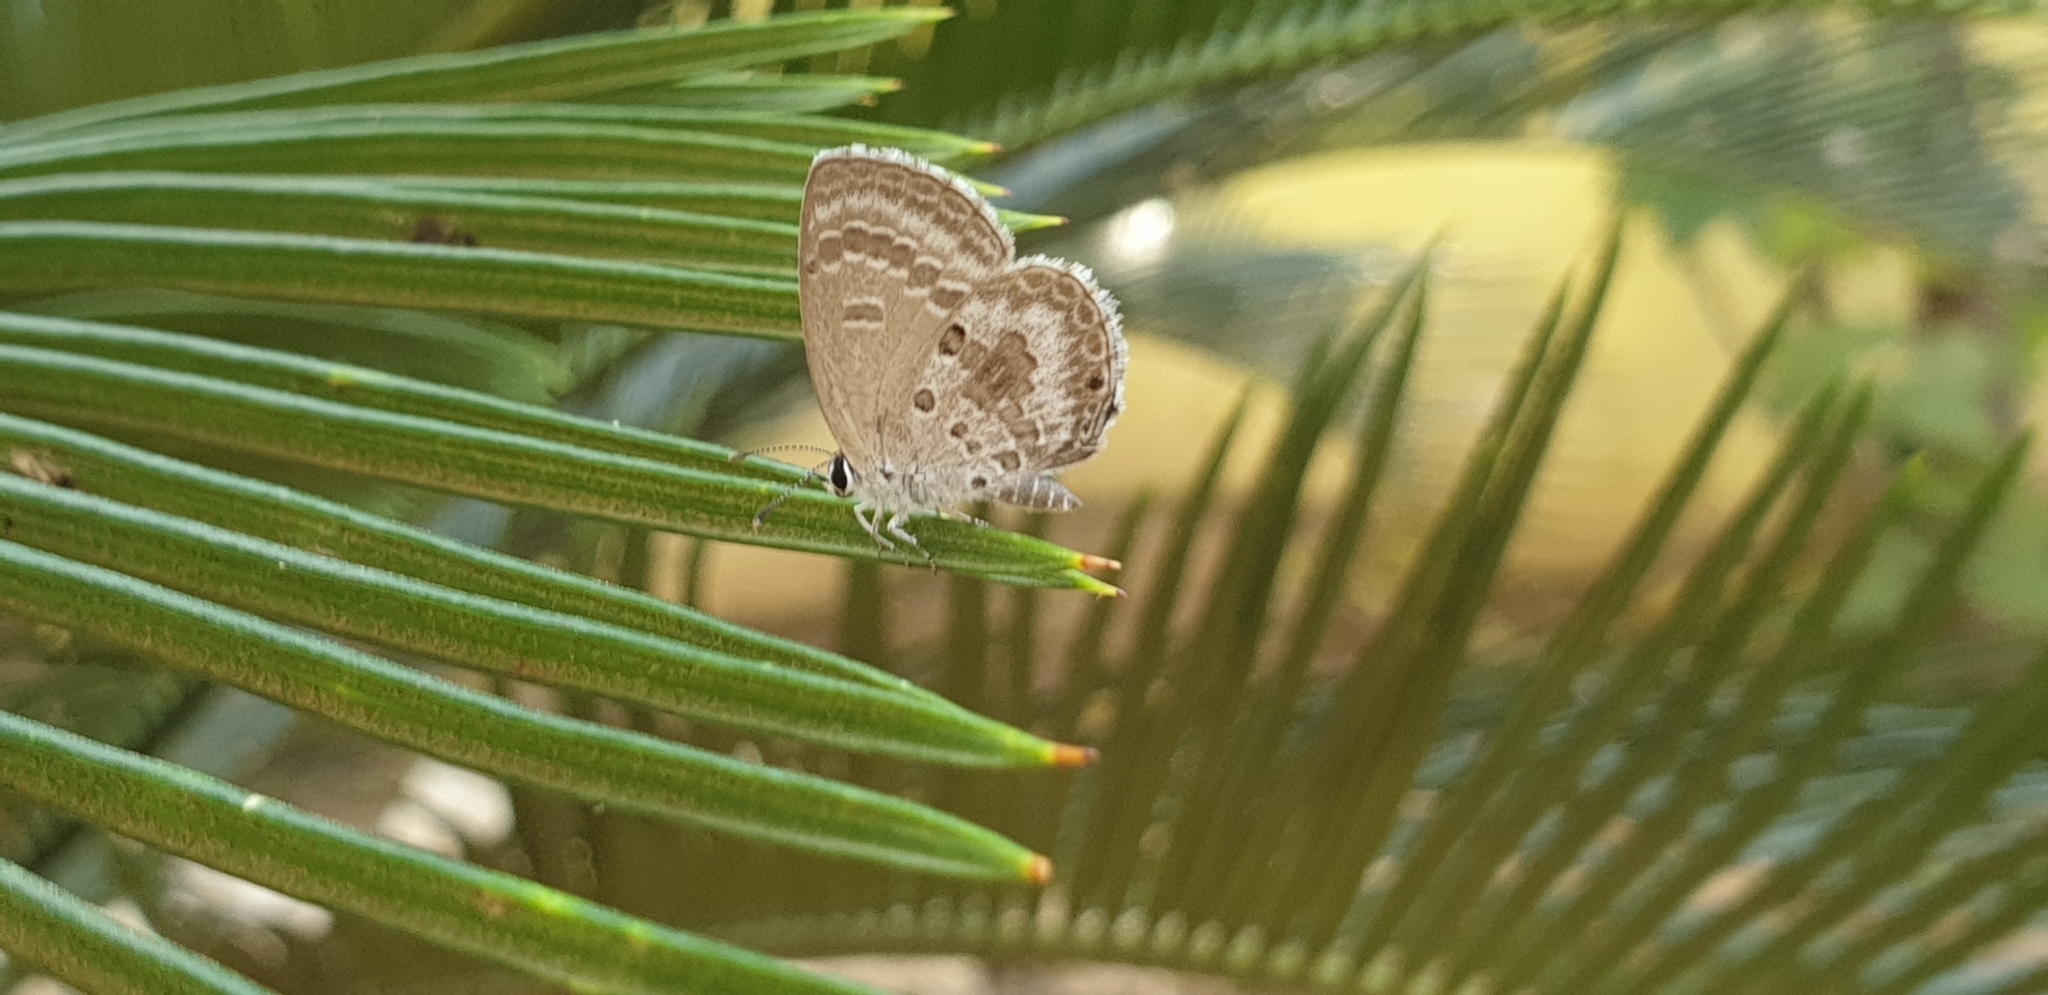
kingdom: Animalia
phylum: Arthropoda
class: Insecta
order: Lepidoptera
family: Lycaenidae
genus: Luthrodes
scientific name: Luthrodes pandava
